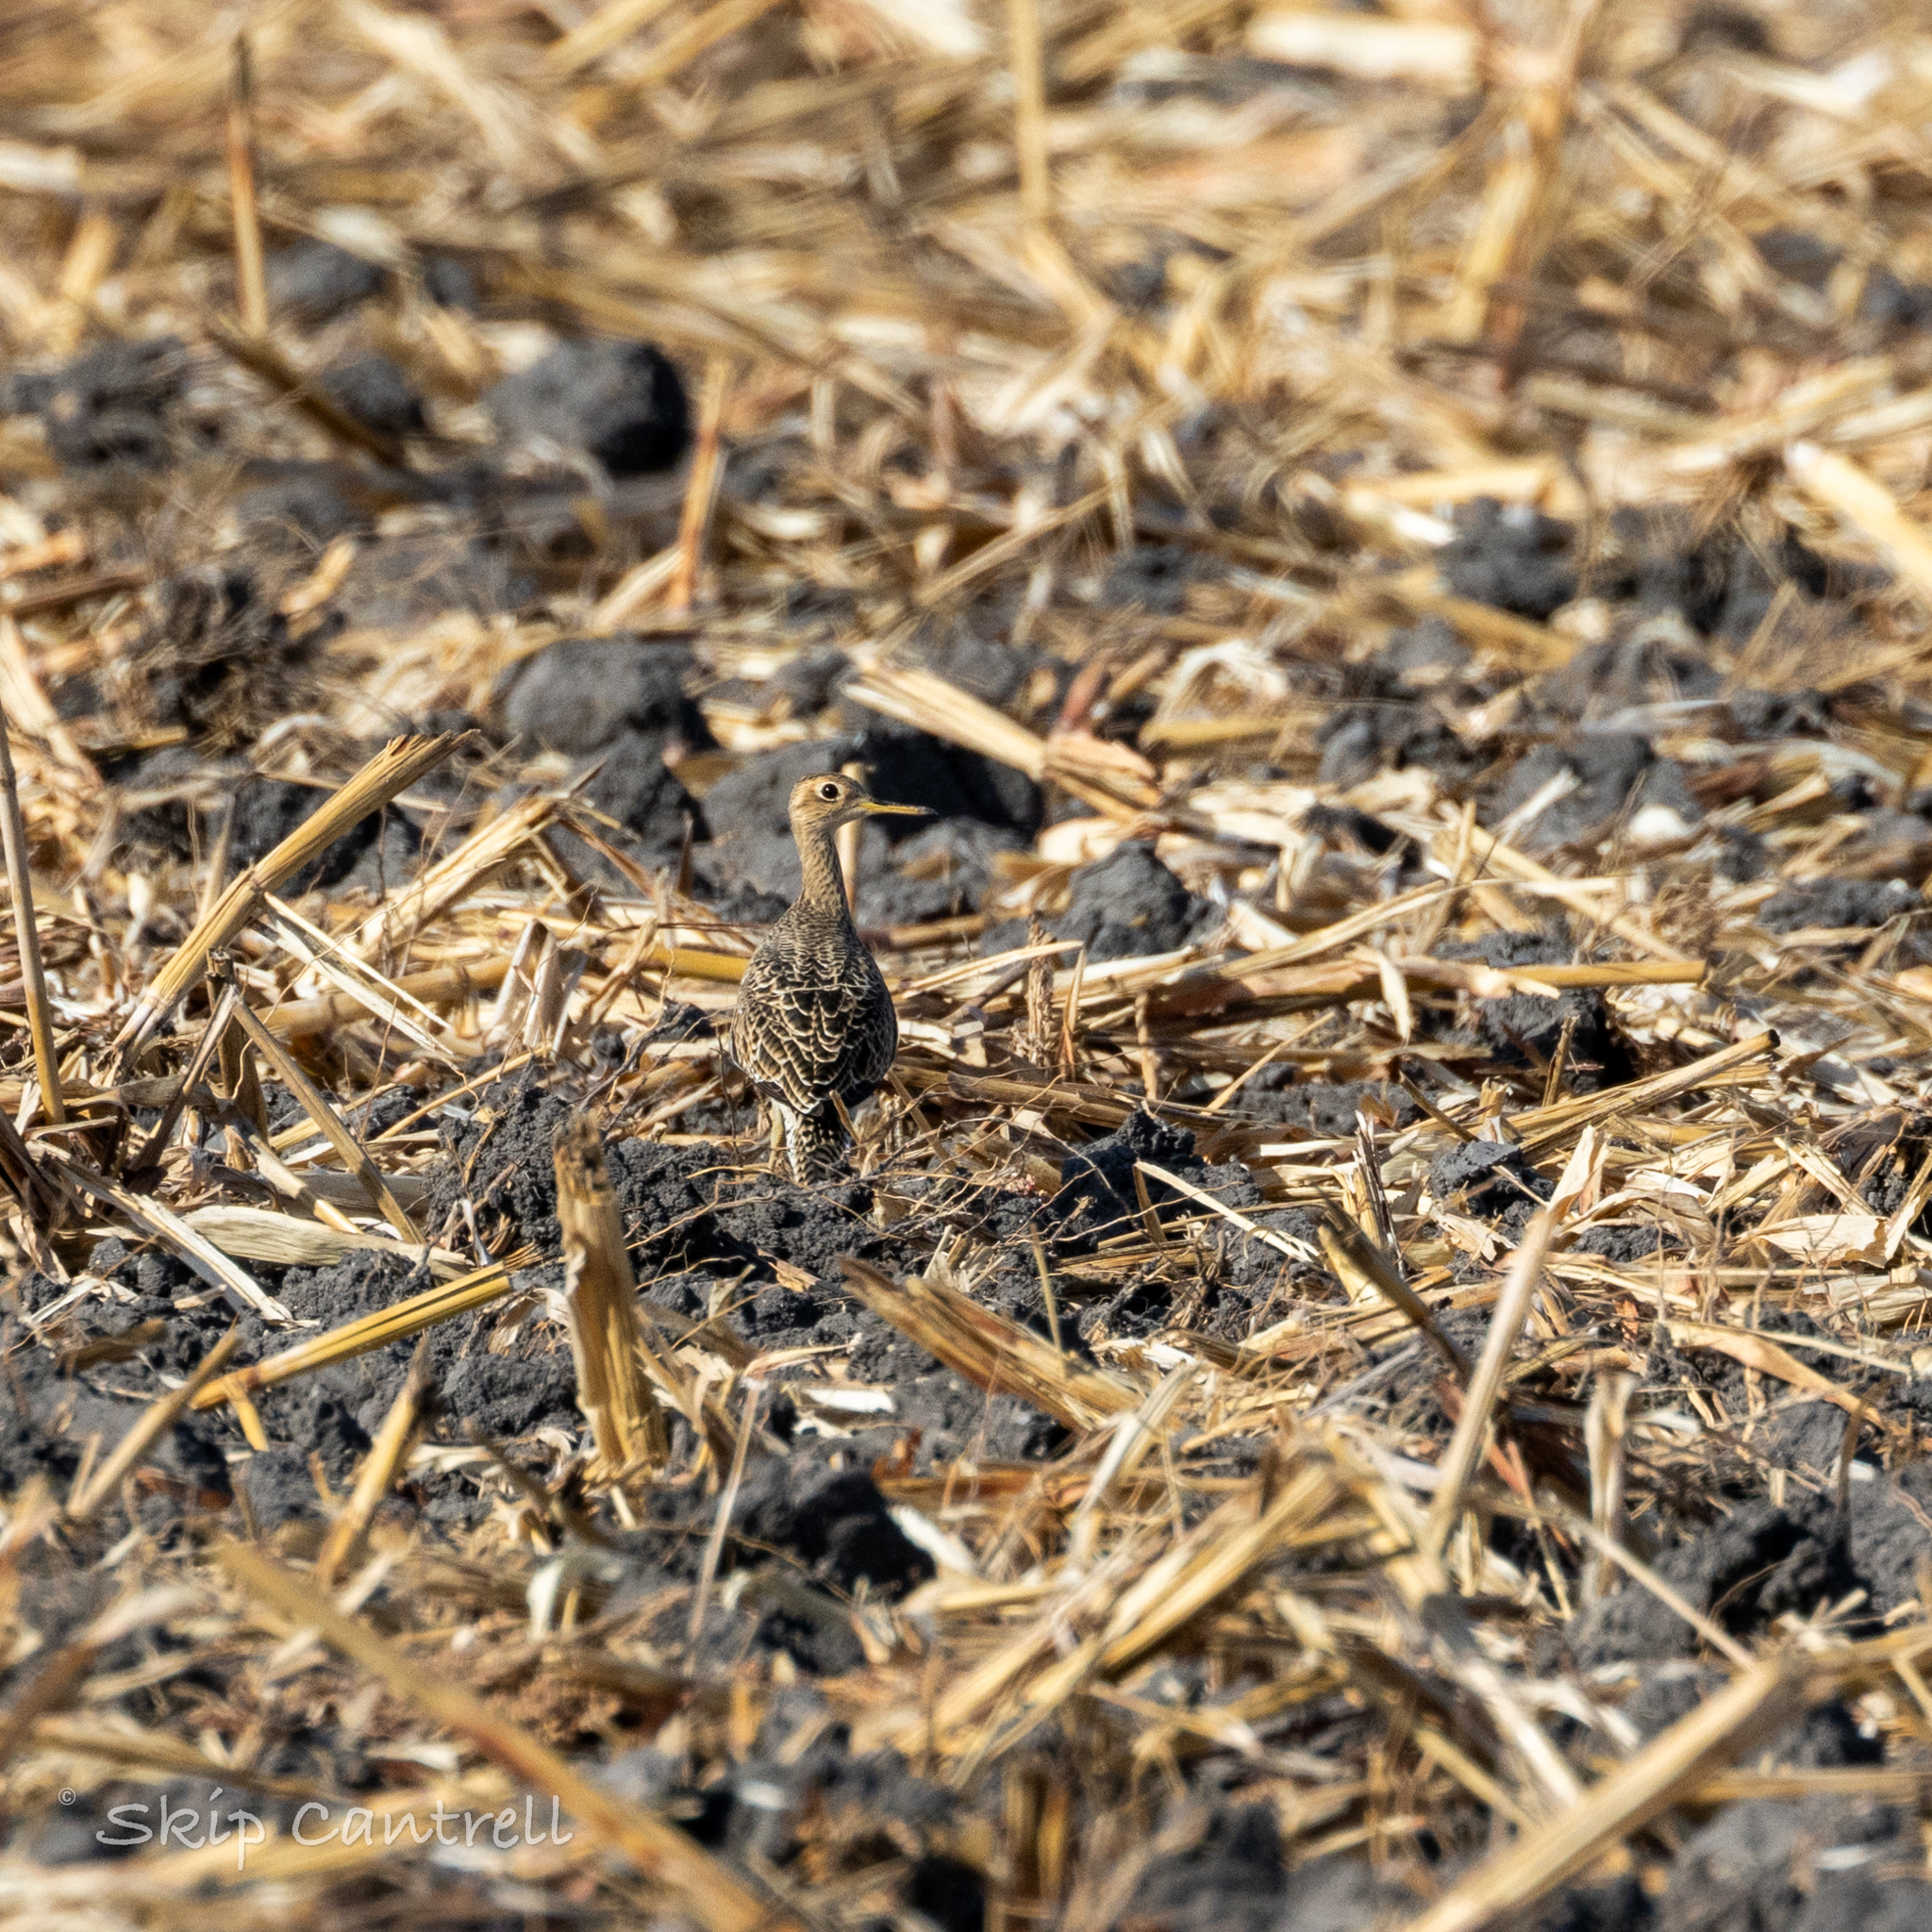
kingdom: Animalia
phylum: Chordata
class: Aves
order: Charadriiformes
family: Scolopacidae
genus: Bartramia
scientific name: Bartramia longicauda
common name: Upland sandpiper
